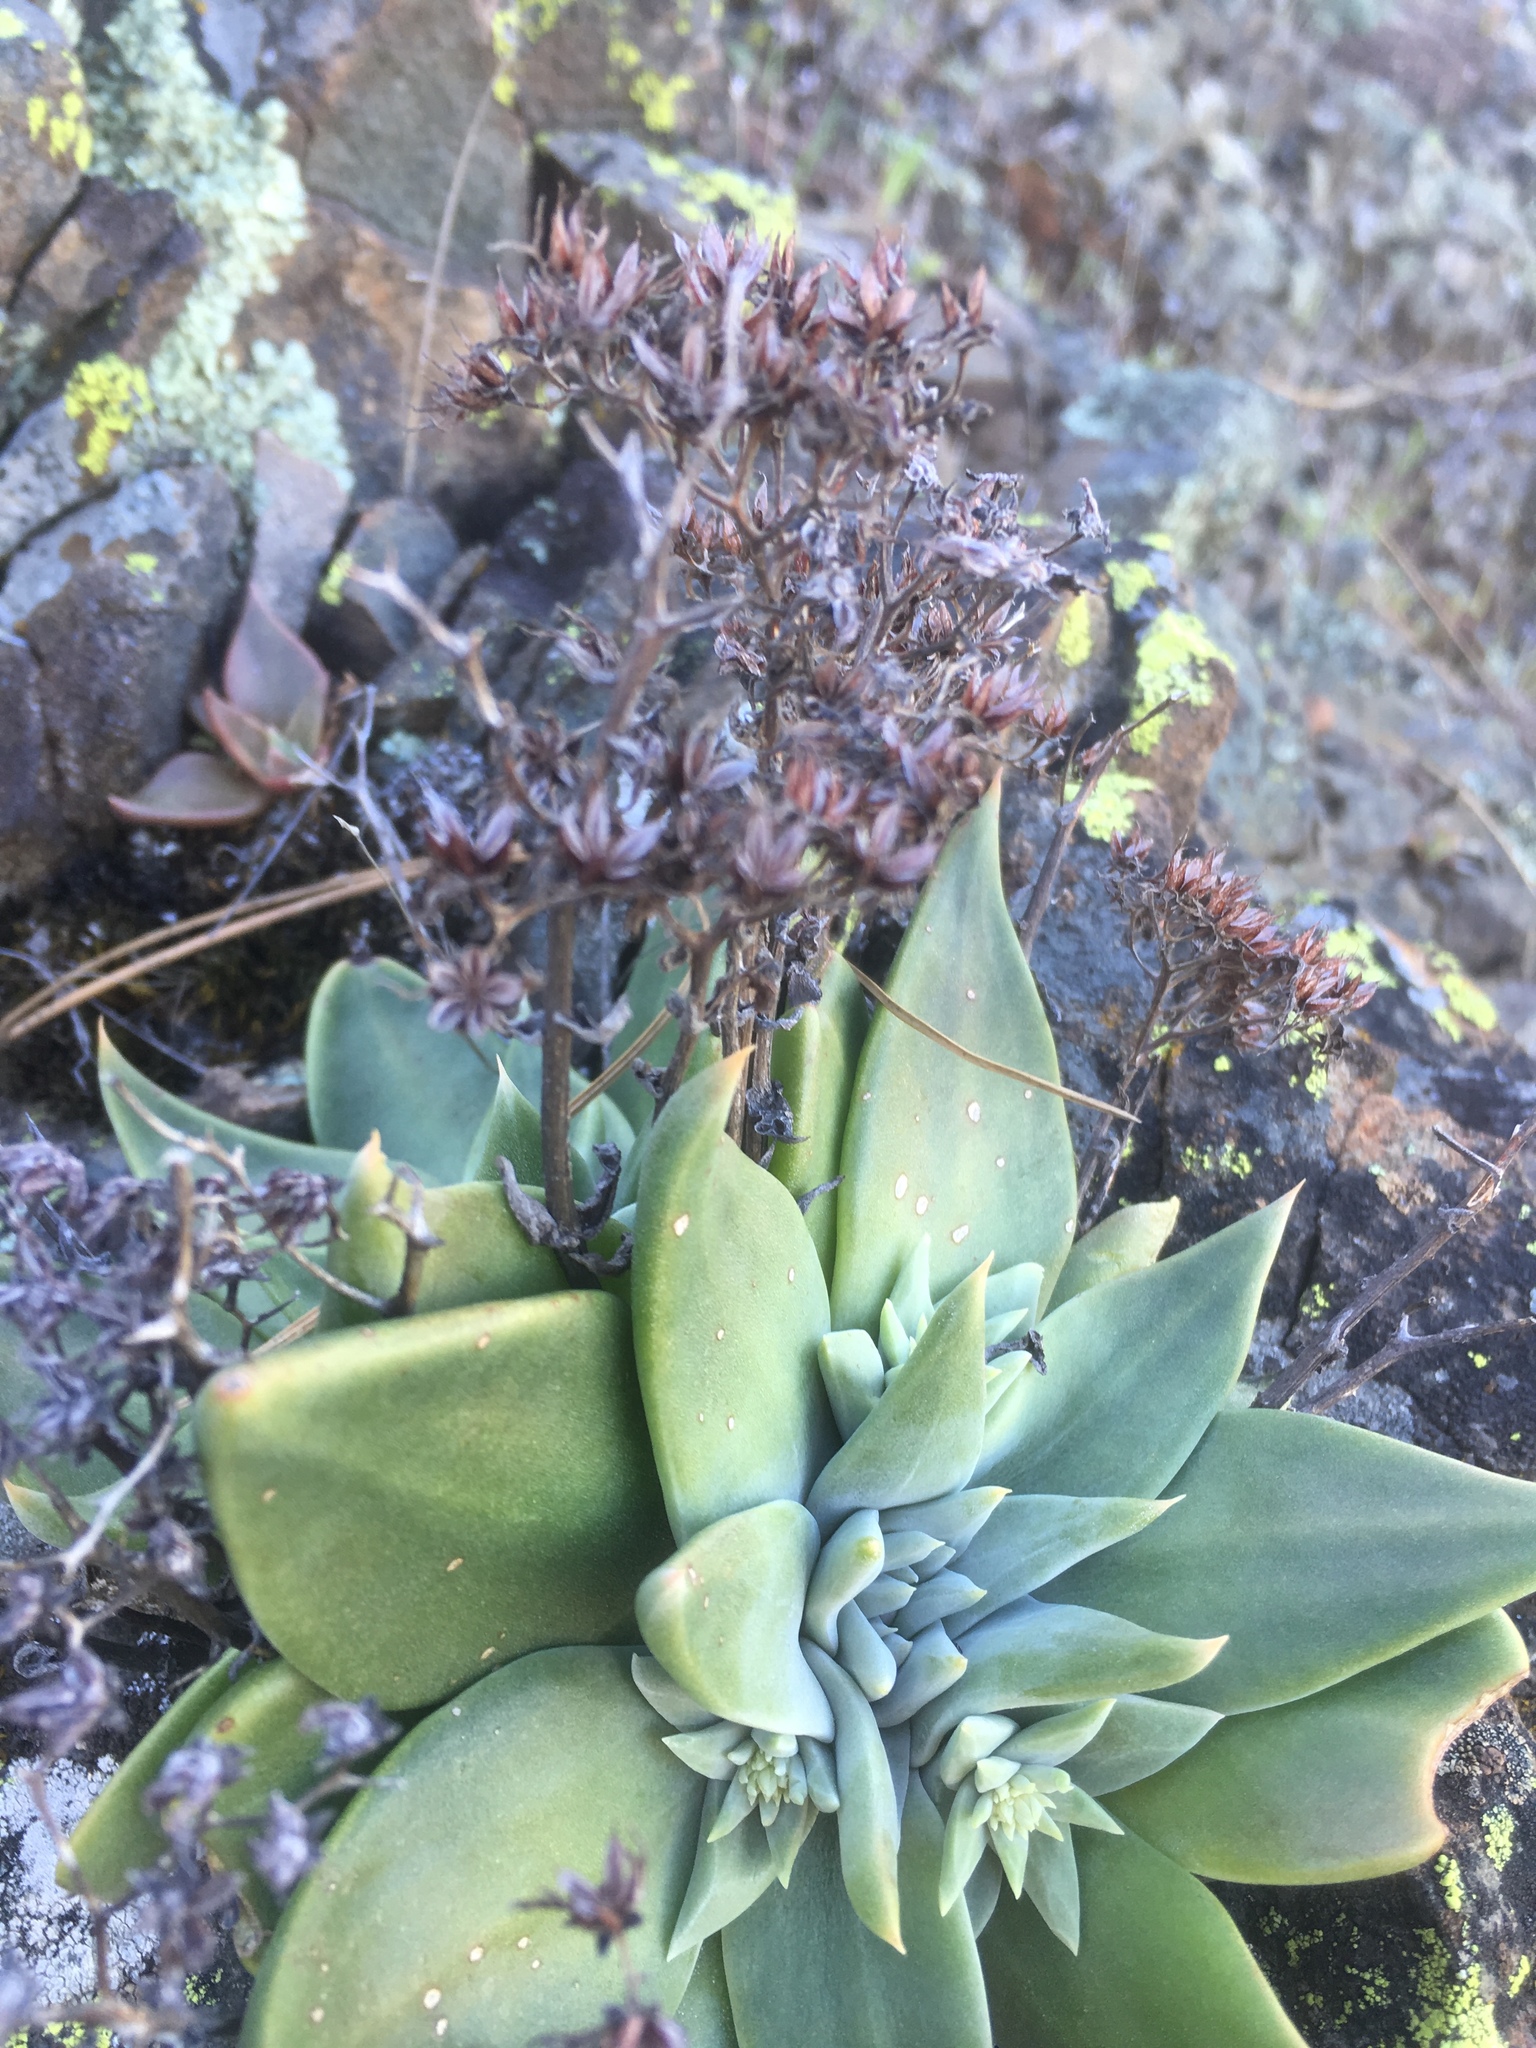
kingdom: Plantae
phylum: Tracheophyta
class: Magnoliopsida
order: Saxifragales
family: Crassulaceae
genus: Dudleya
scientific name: Dudleya cymosa
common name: Canyon dudleya
